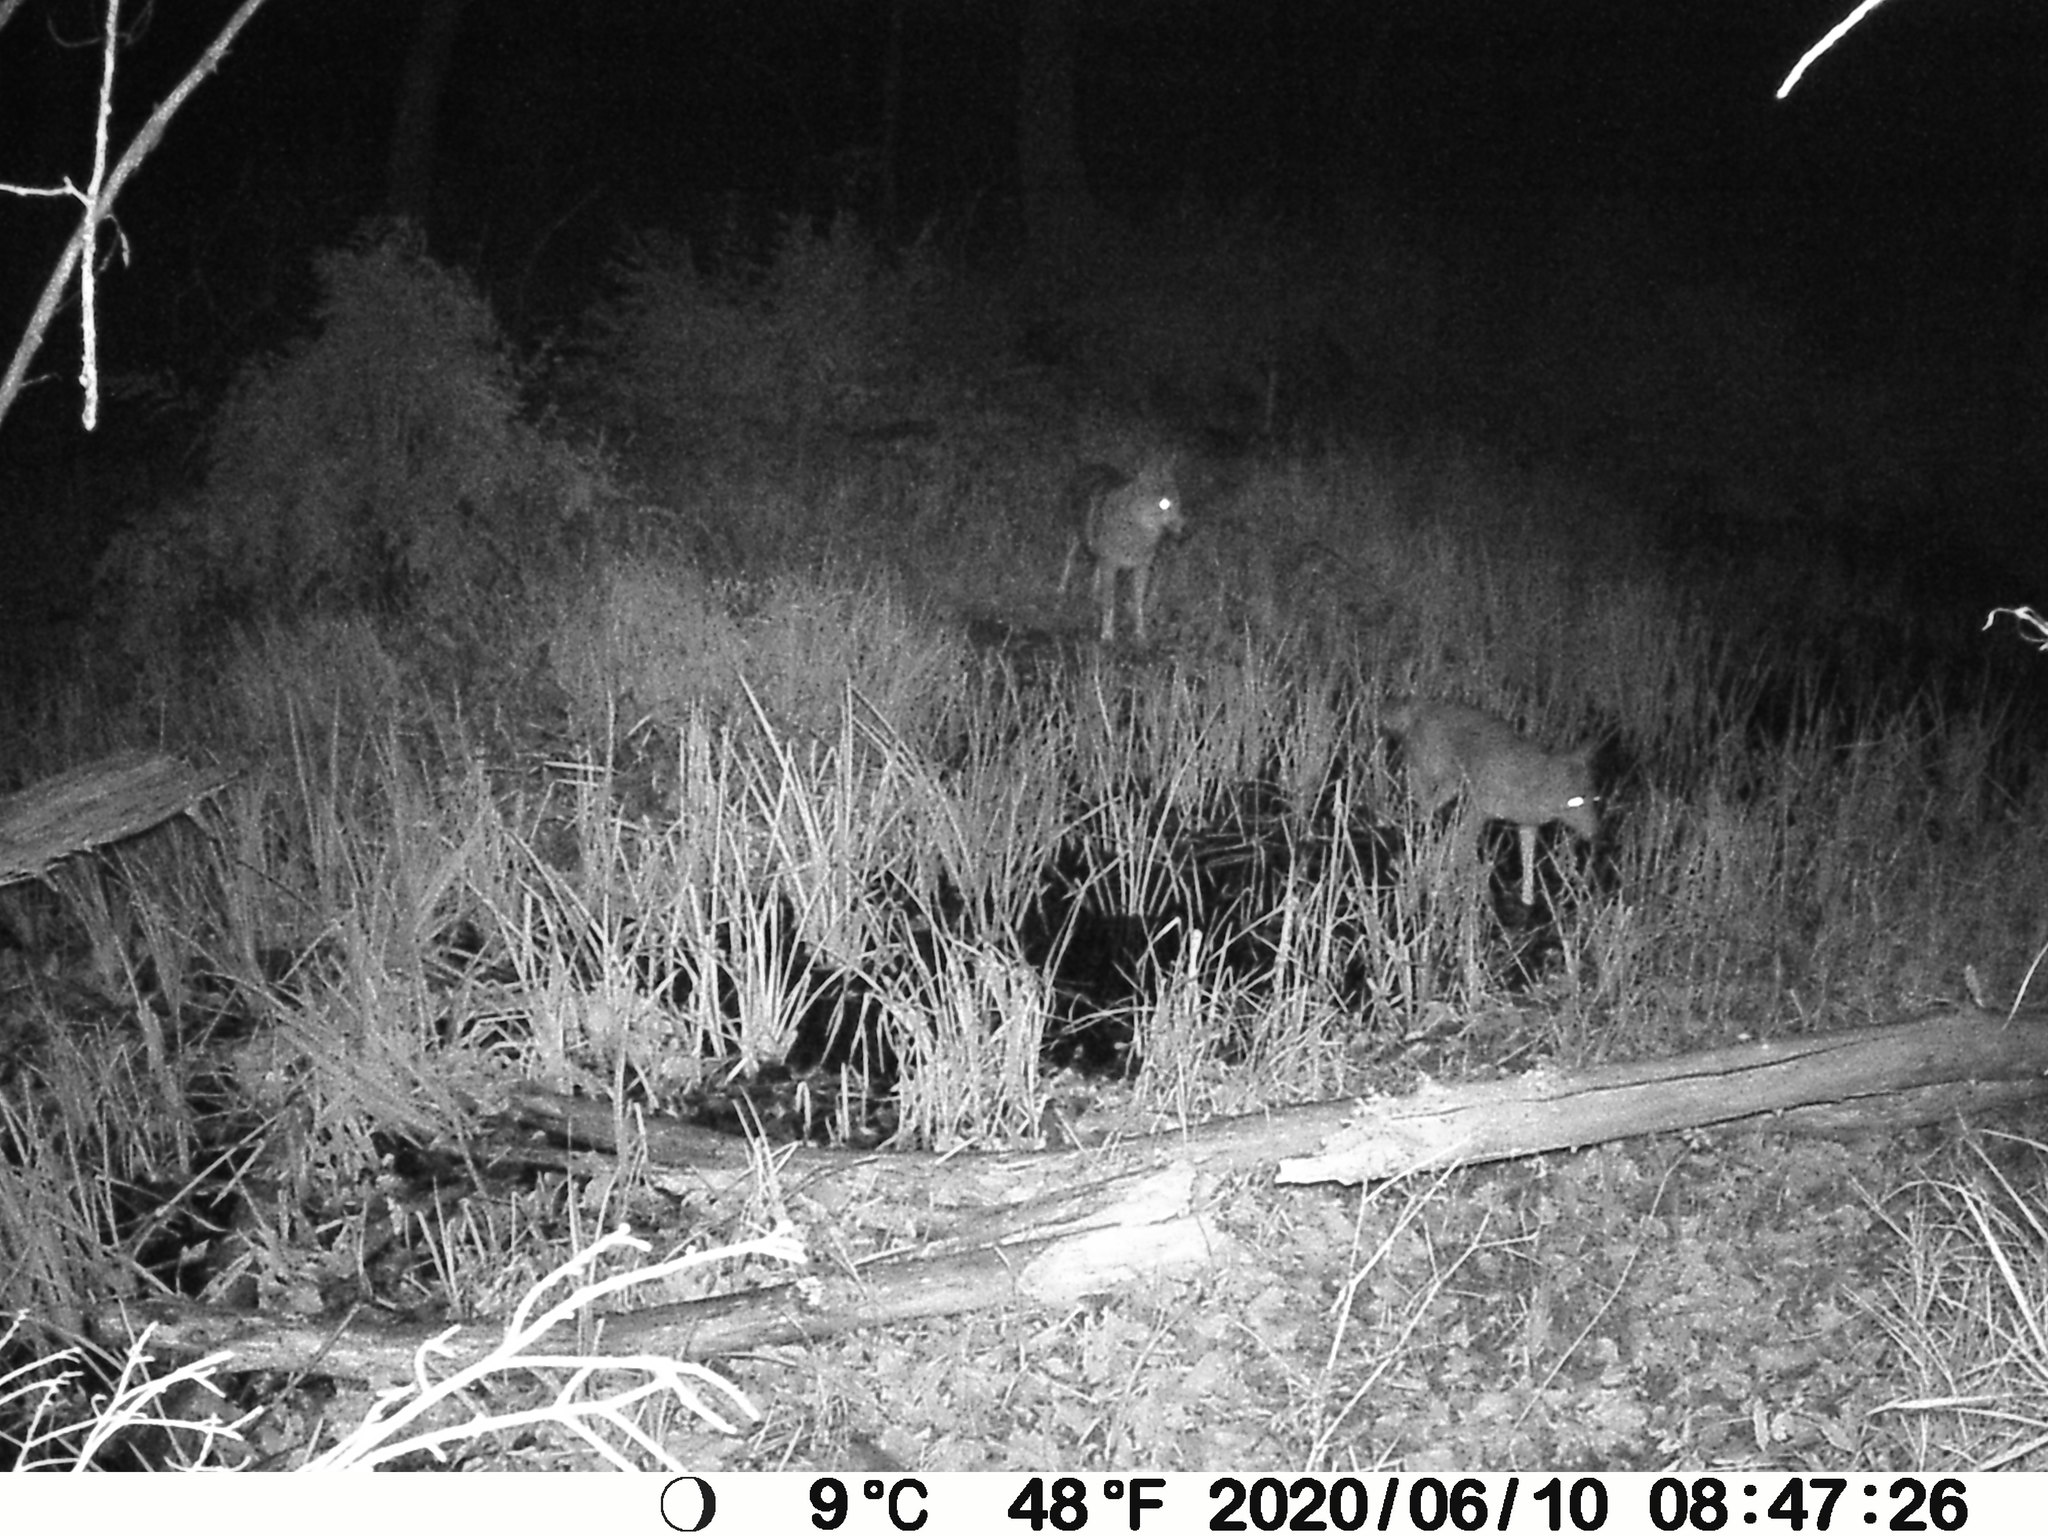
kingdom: Animalia
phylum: Chordata
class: Mammalia
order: Carnivora
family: Canidae
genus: Canis
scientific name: Canis latrans
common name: Coyote
